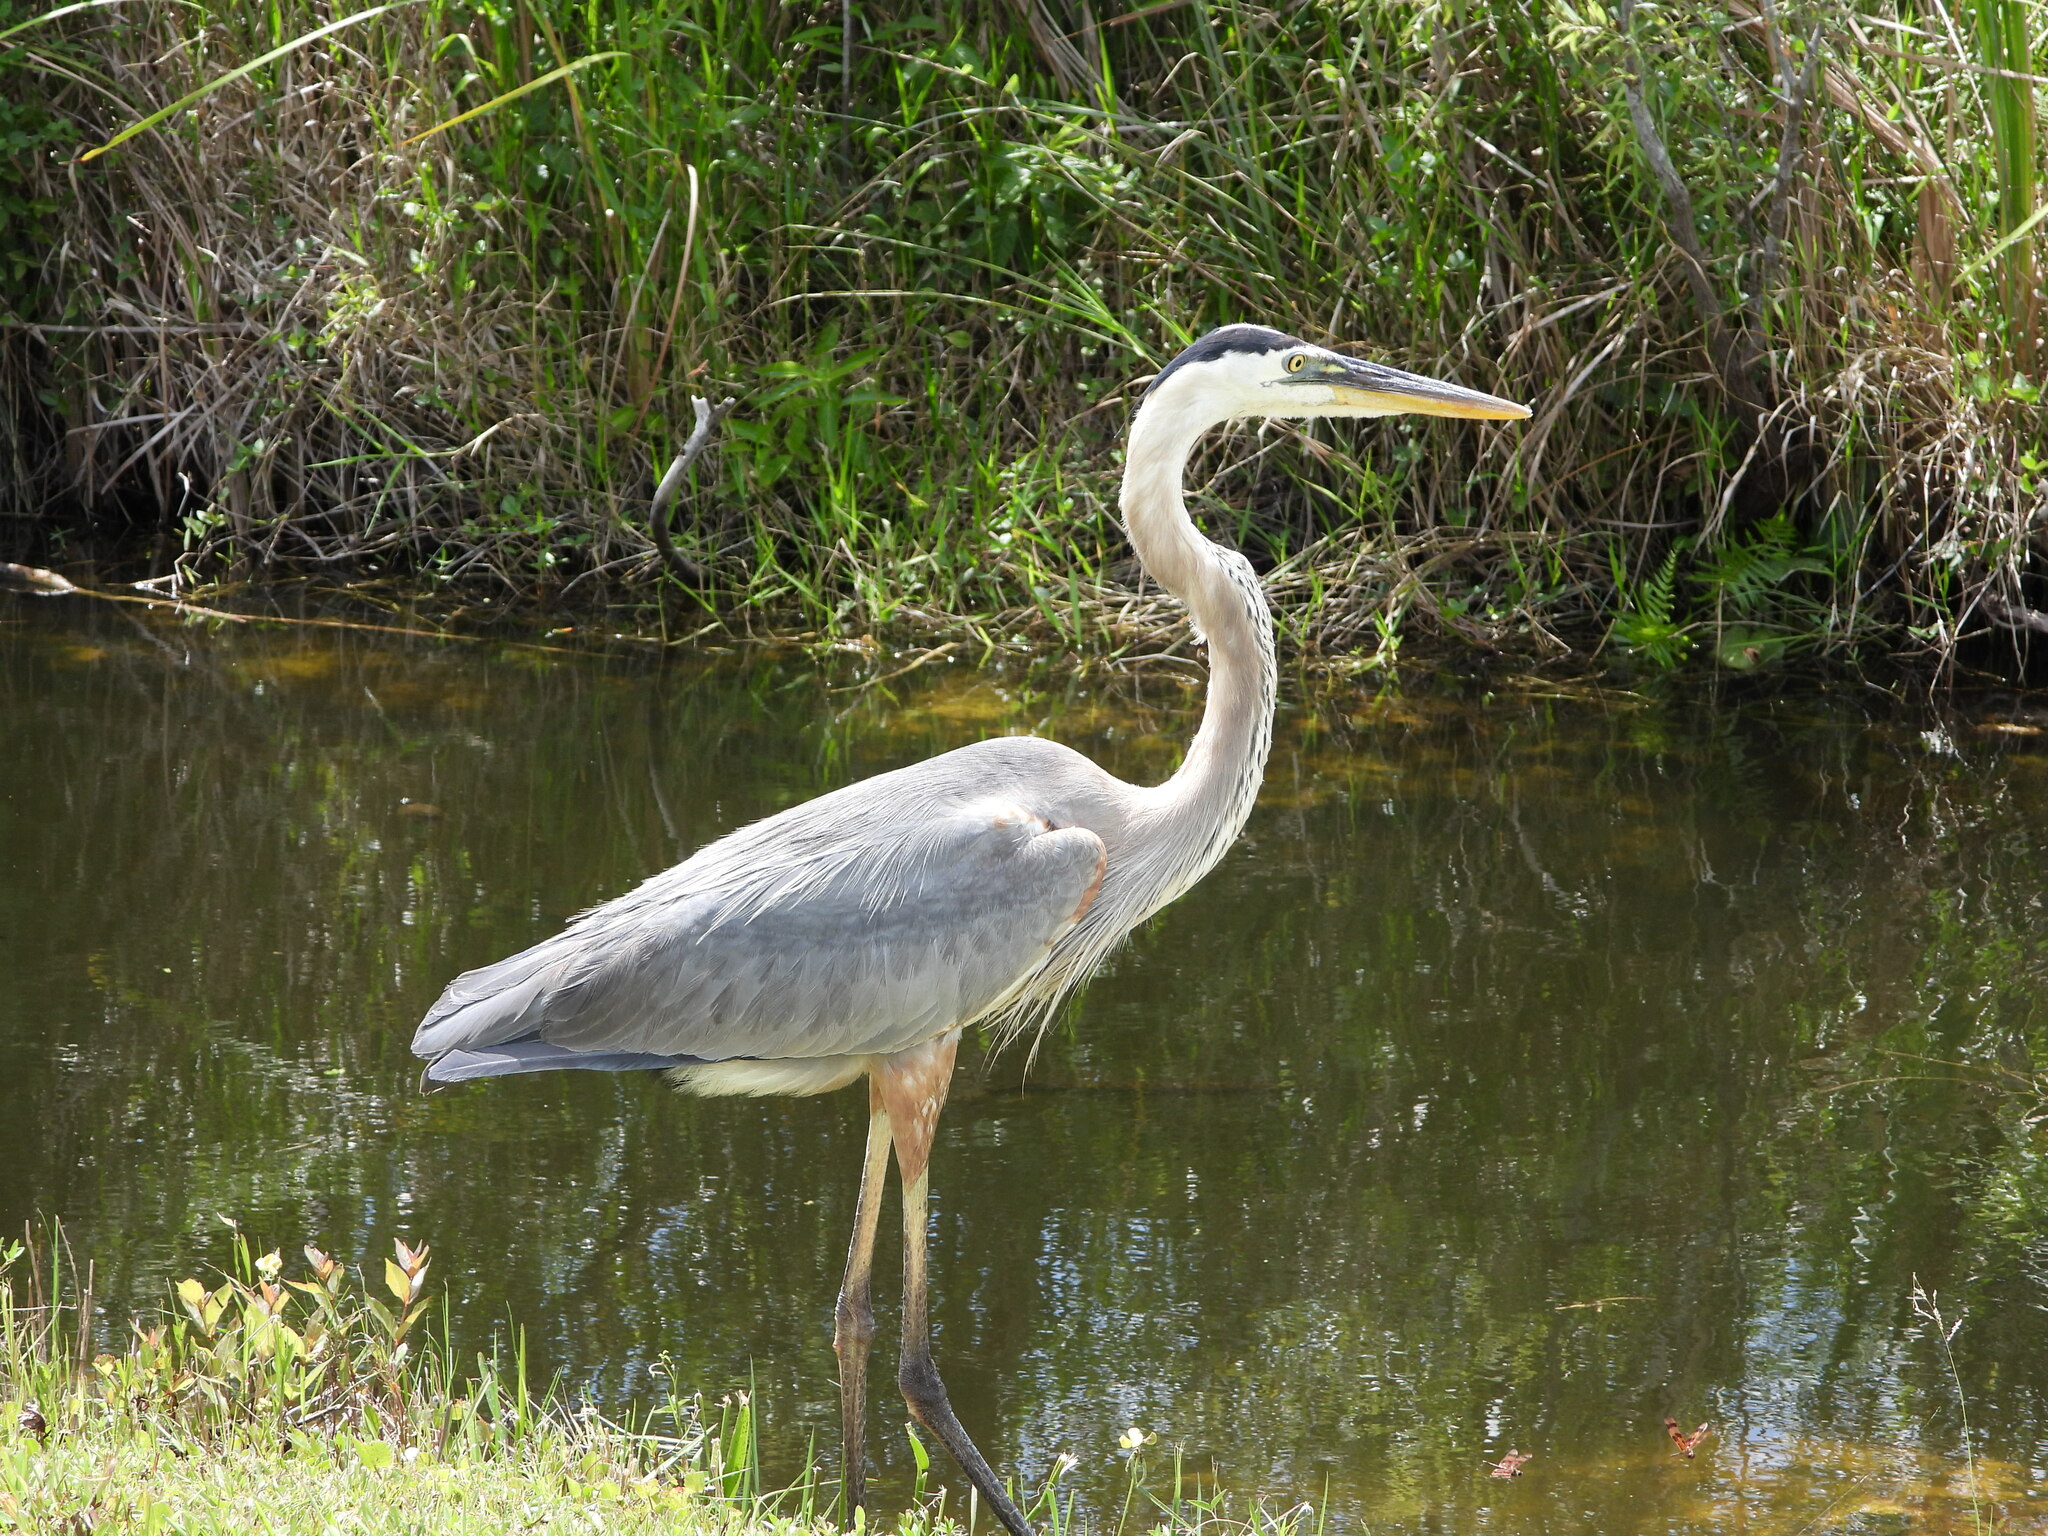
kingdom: Animalia
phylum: Chordata
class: Aves
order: Pelecaniformes
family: Ardeidae
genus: Ardea
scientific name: Ardea herodias
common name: Great blue heron
